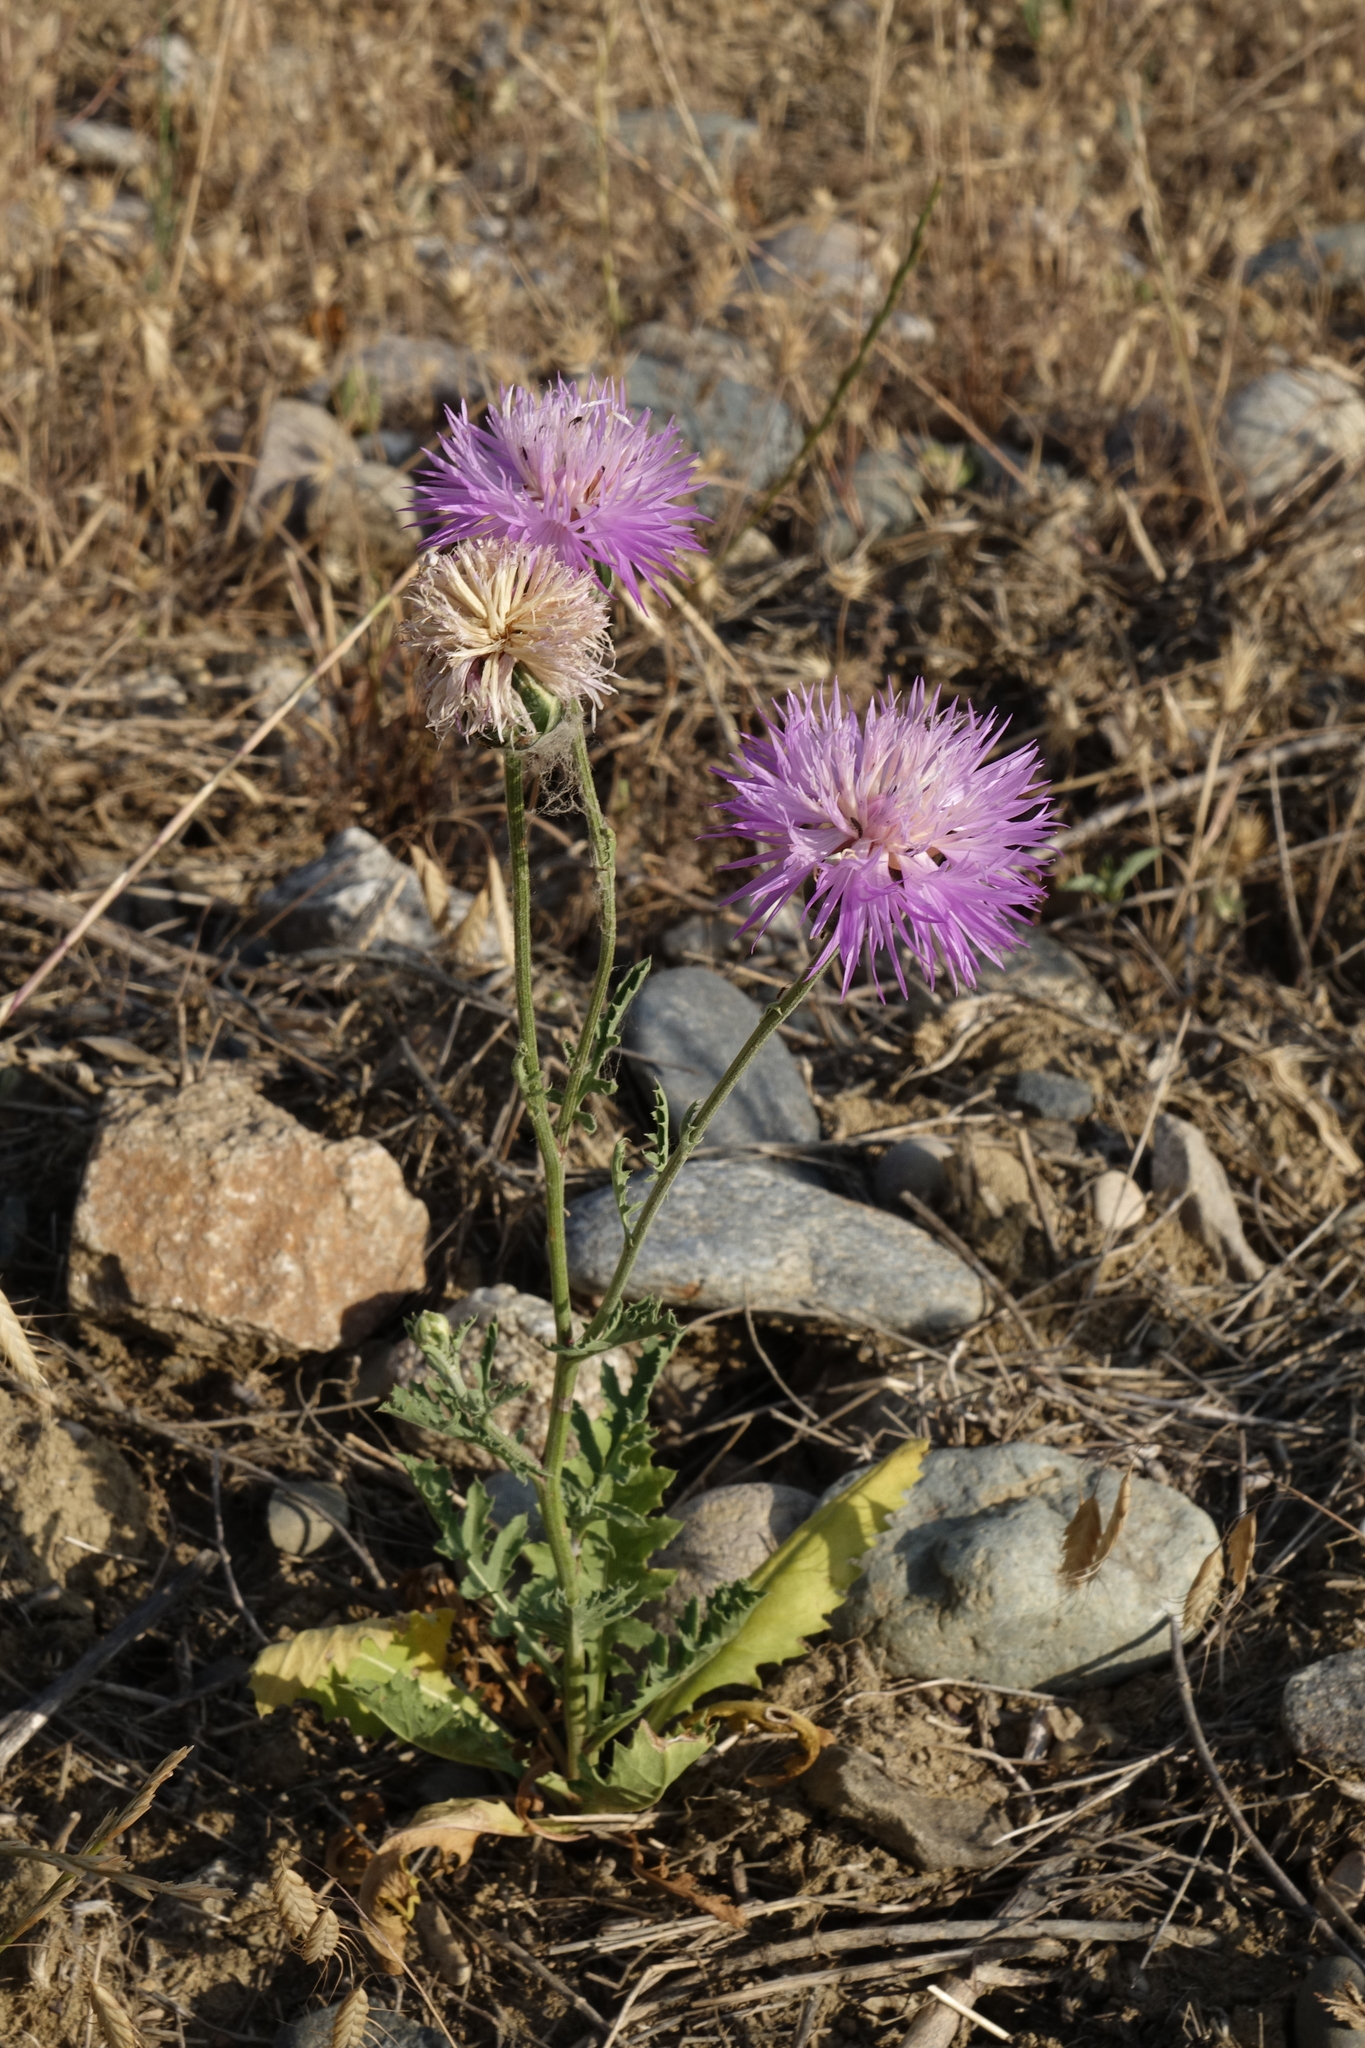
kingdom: Plantae
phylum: Tracheophyta
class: Magnoliopsida
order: Asterales
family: Asteraceae
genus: Amberboa
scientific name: Amberboa glauca
